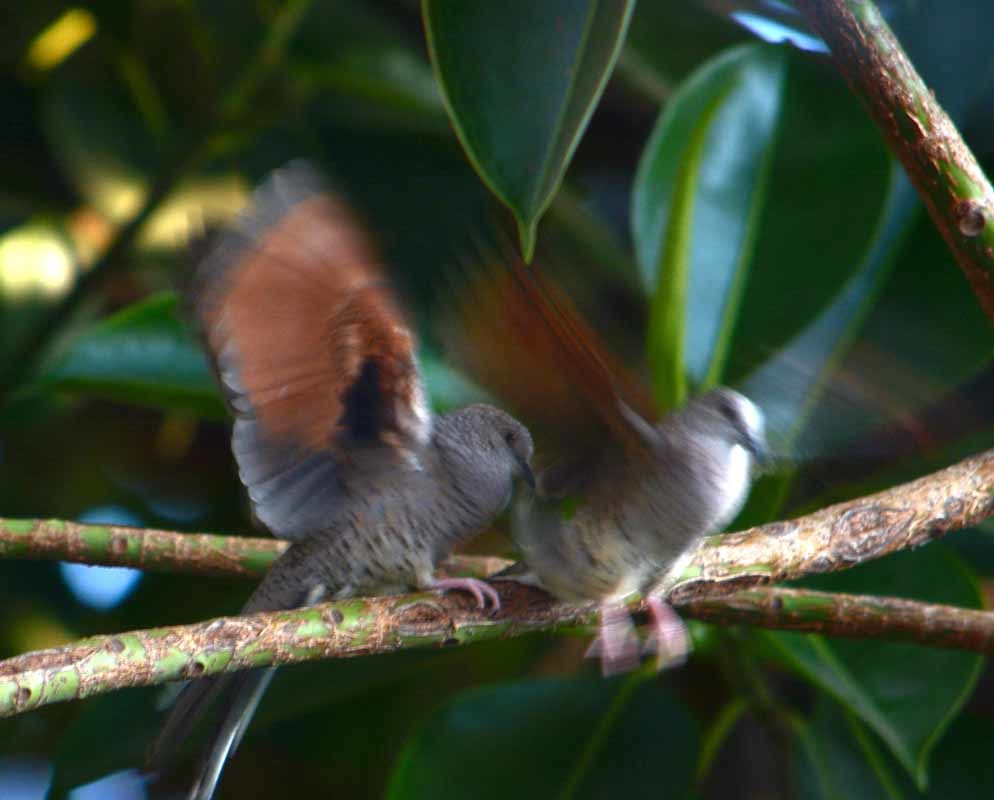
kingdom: Animalia
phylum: Chordata
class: Aves
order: Columbiformes
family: Columbidae
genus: Columbina
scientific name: Columbina inca
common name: Inca dove
